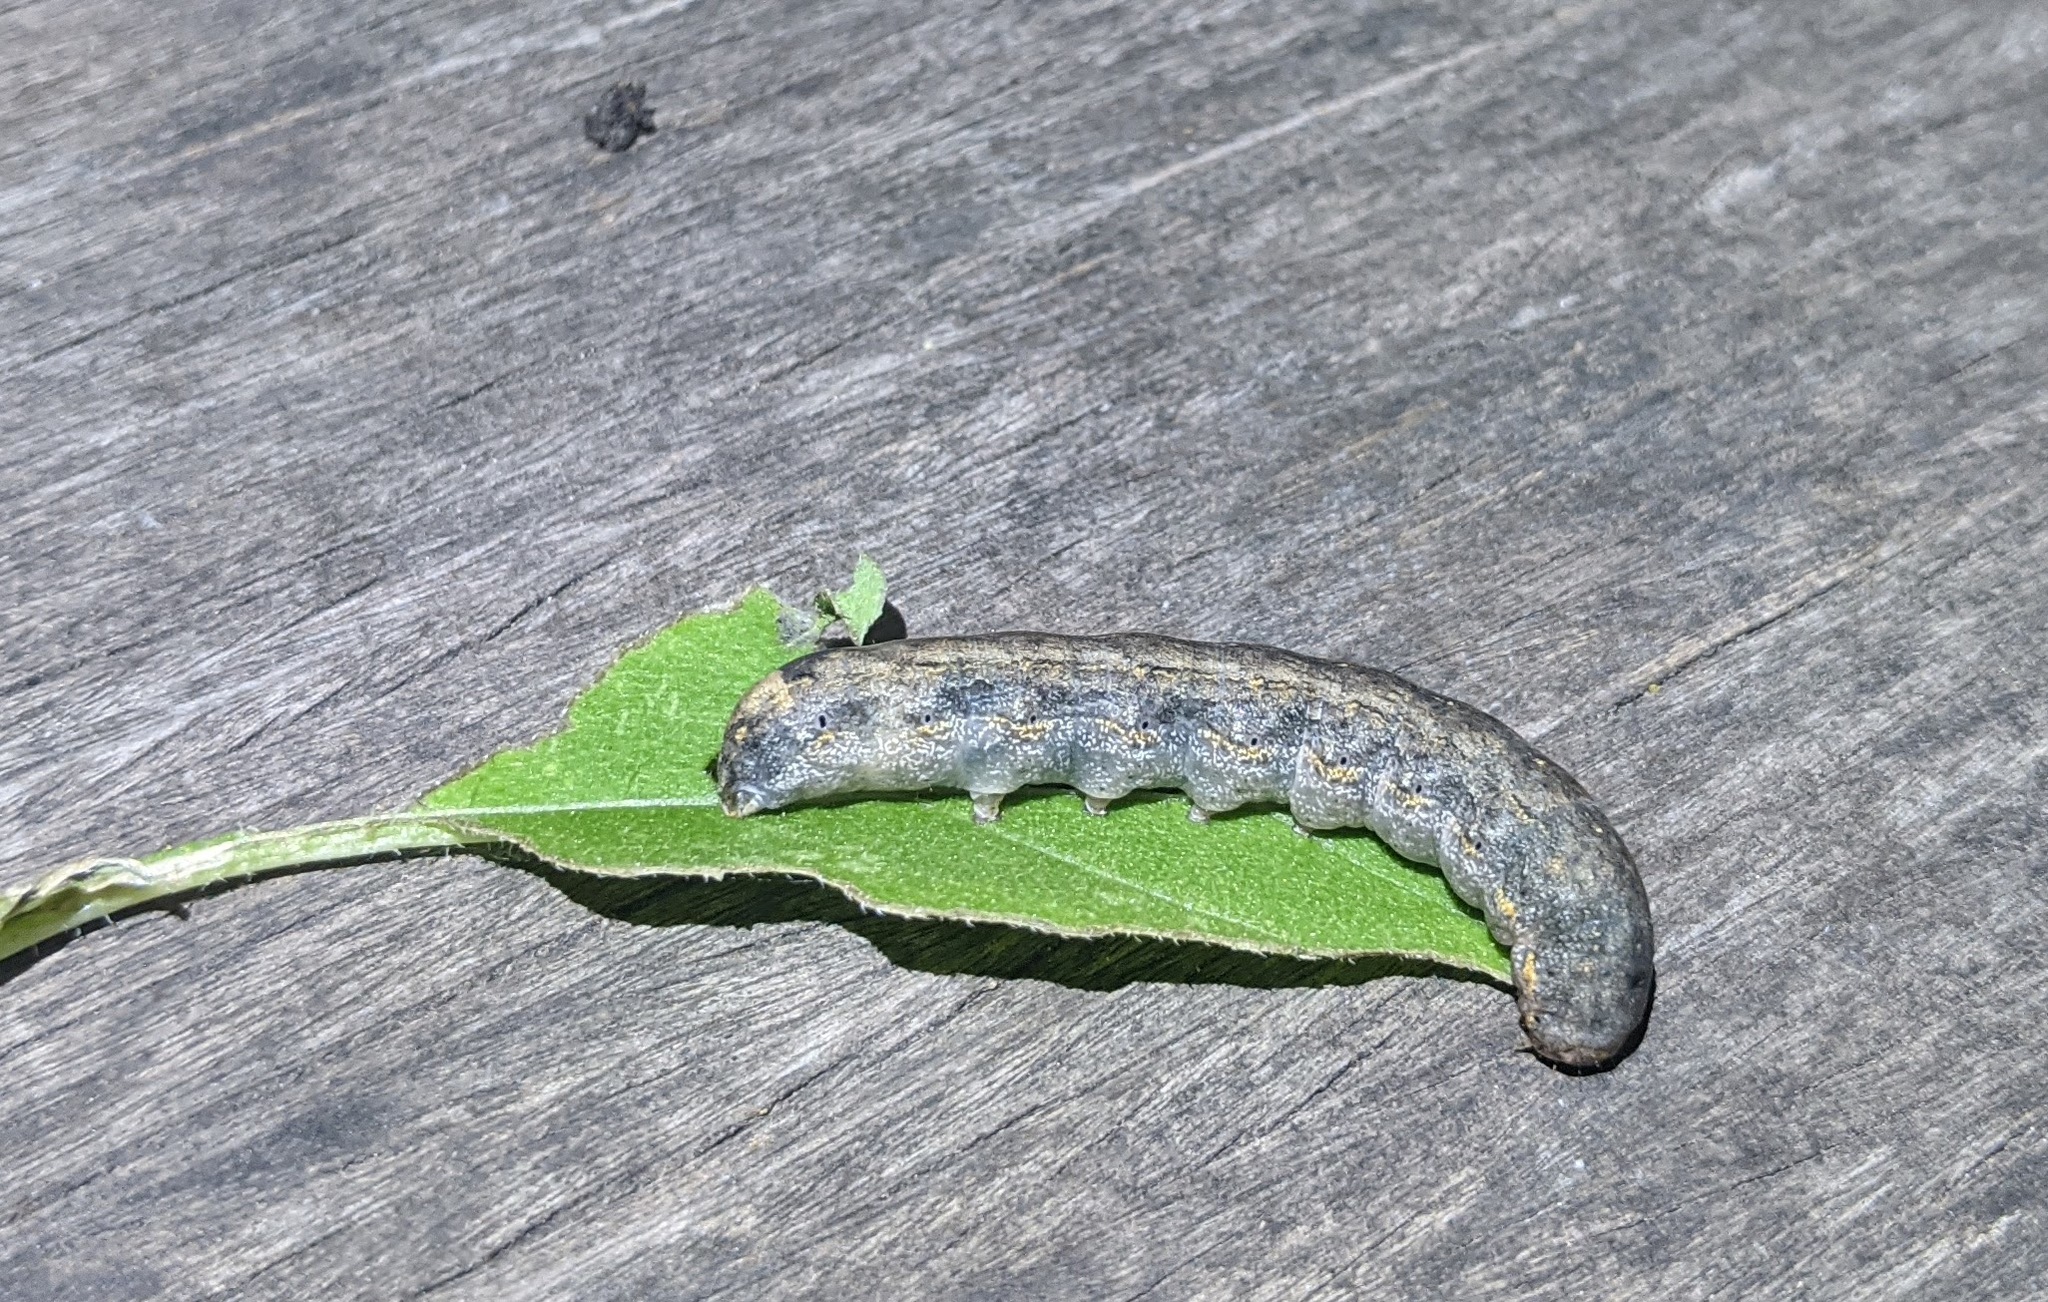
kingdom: Animalia
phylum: Arthropoda
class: Insecta
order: Lepidoptera
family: Noctuidae
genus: Peridroma
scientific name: Peridroma saucia
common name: Pearly underwing
